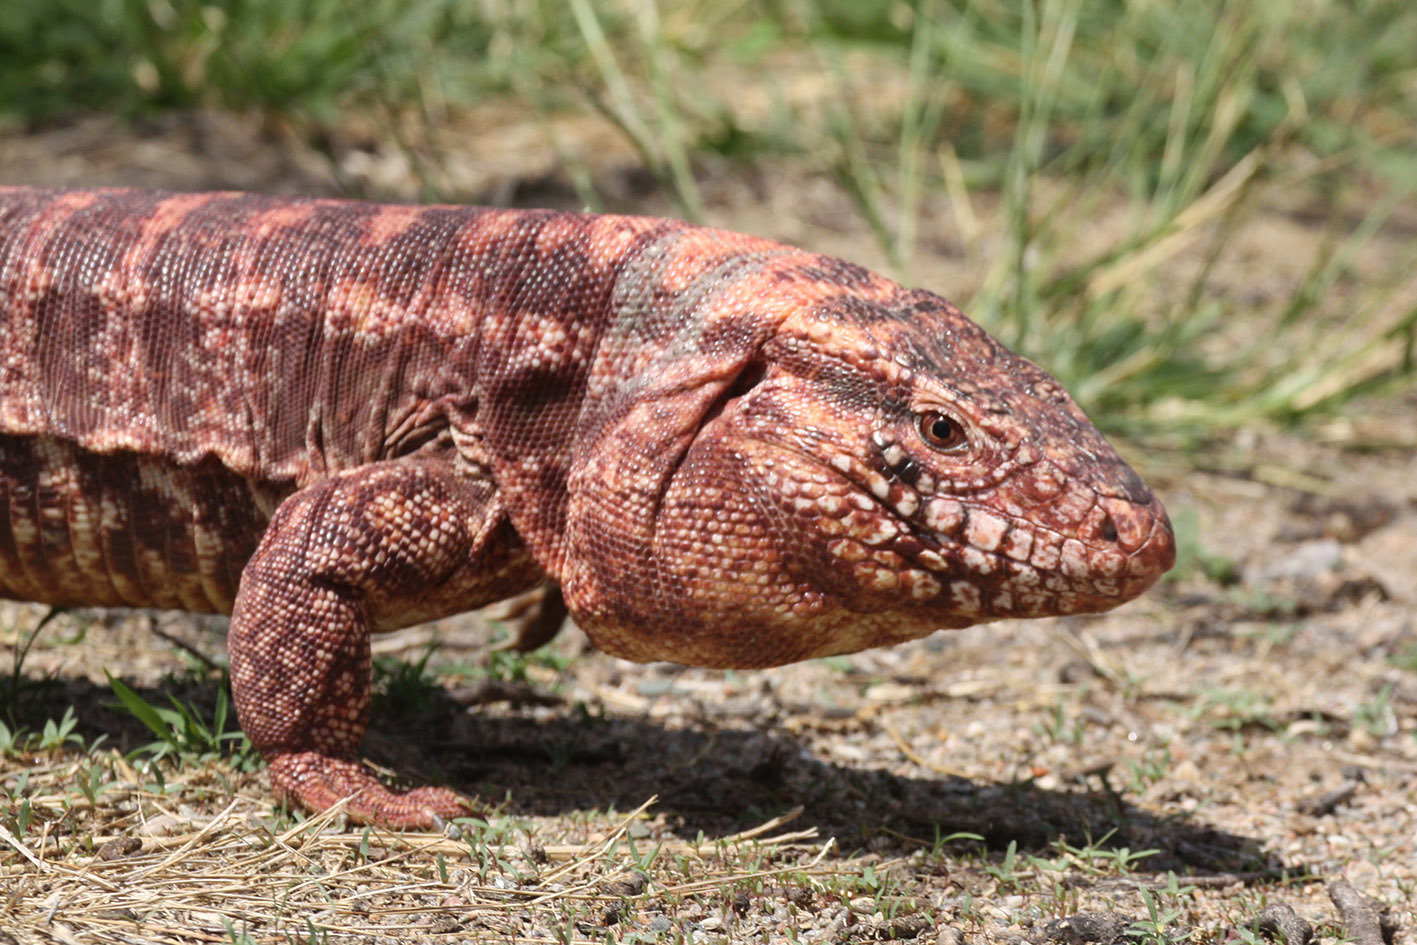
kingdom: Animalia
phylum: Chordata
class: Squamata
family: Teiidae
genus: Salvator
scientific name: Salvator rufescens
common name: Red tegu
